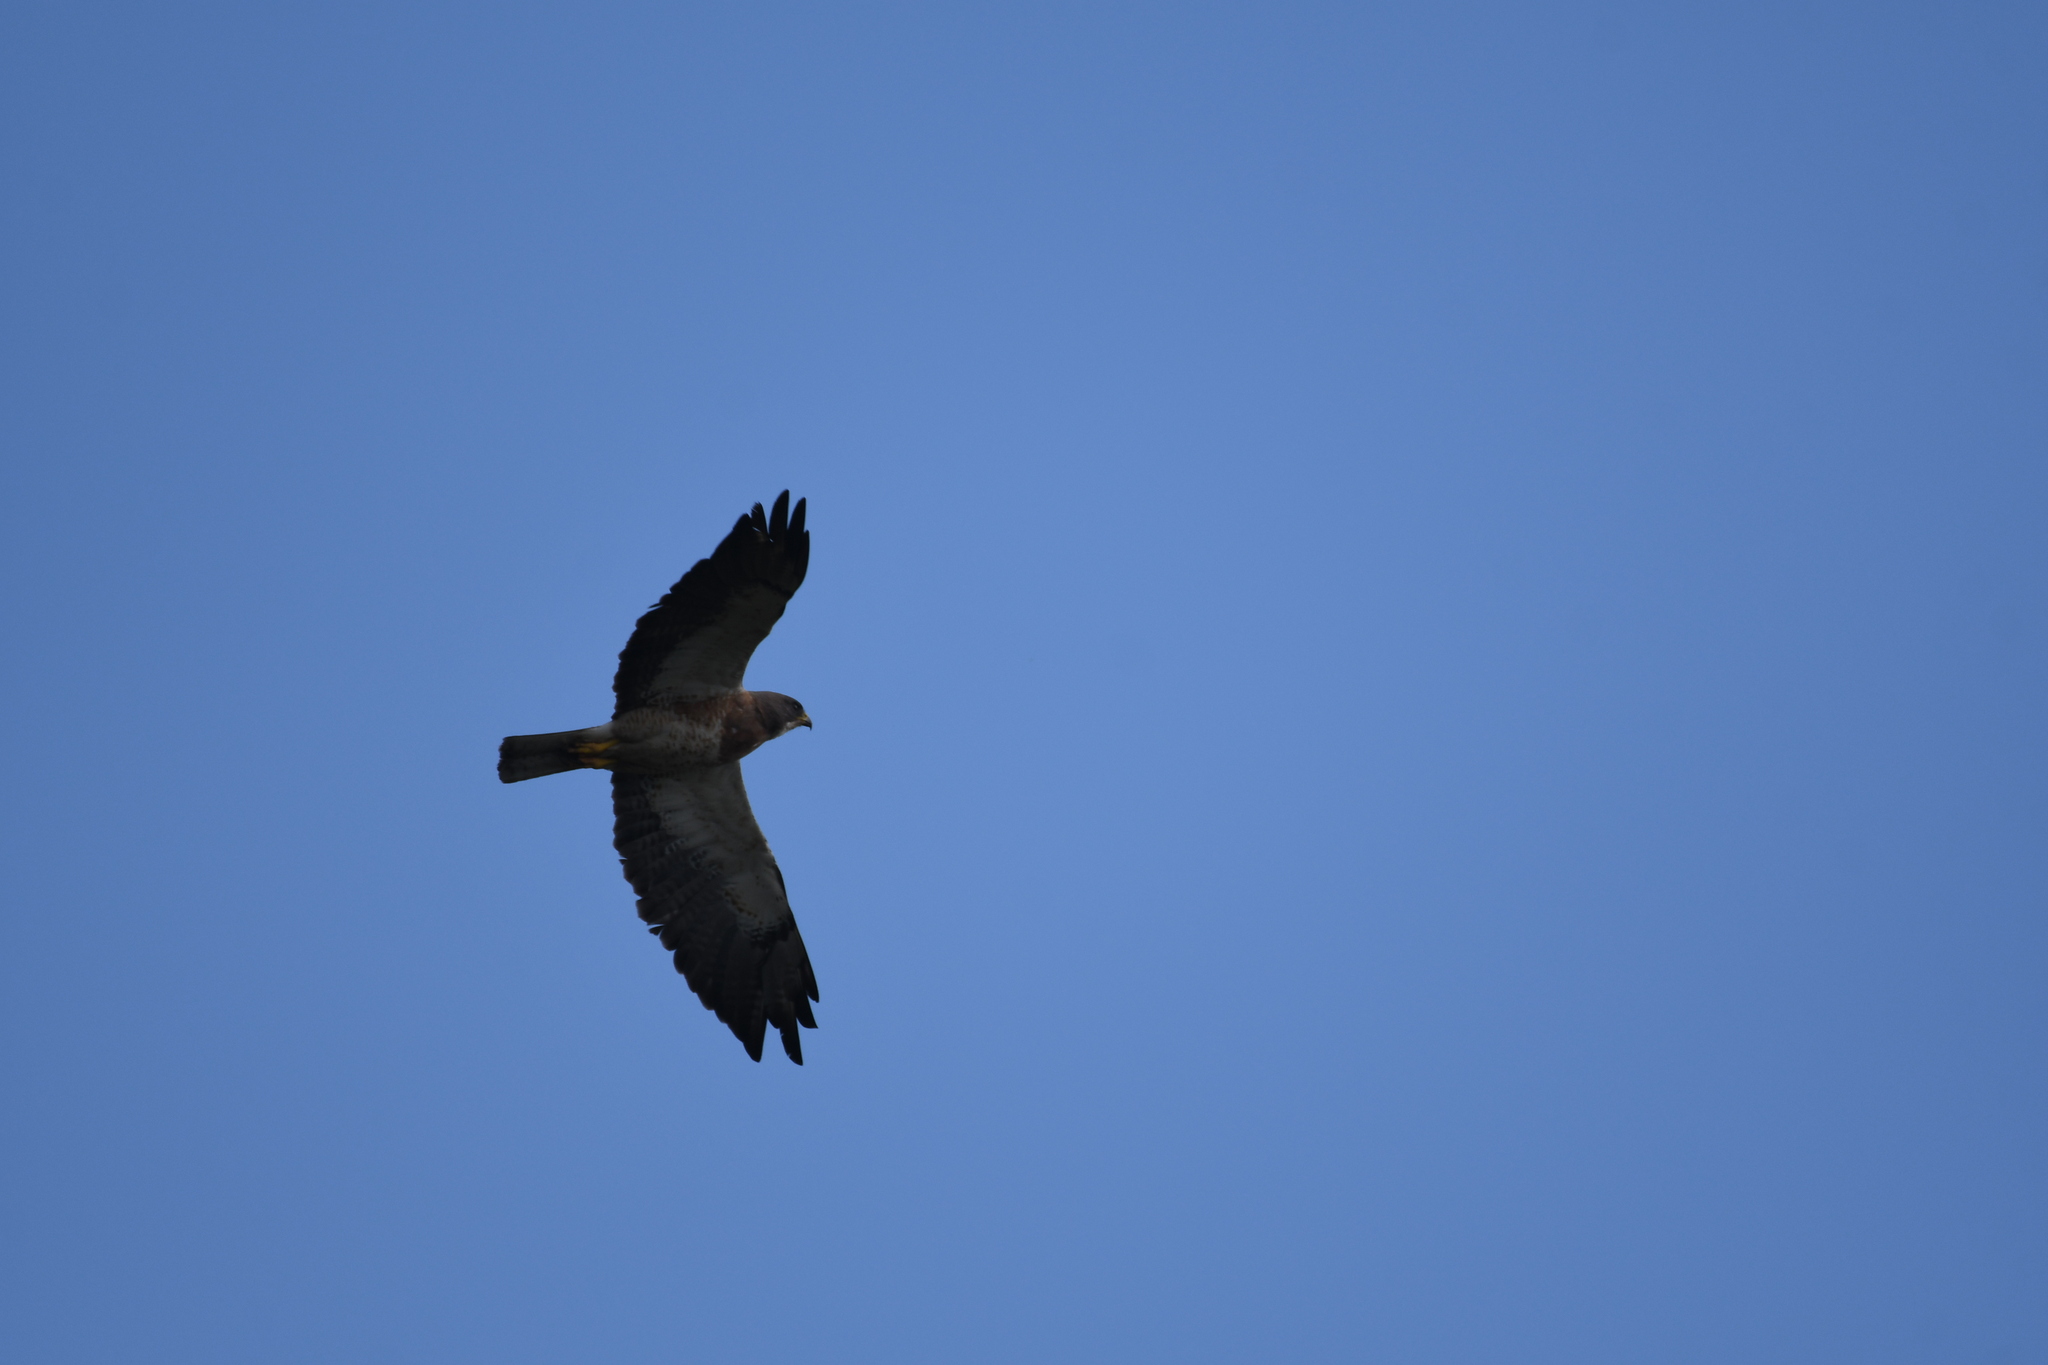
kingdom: Animalia
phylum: Chordata
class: Aves
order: Accipitriformes
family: Accipitridae
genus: Buteo
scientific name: Buteo swainsoni
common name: Swainson's hawk
